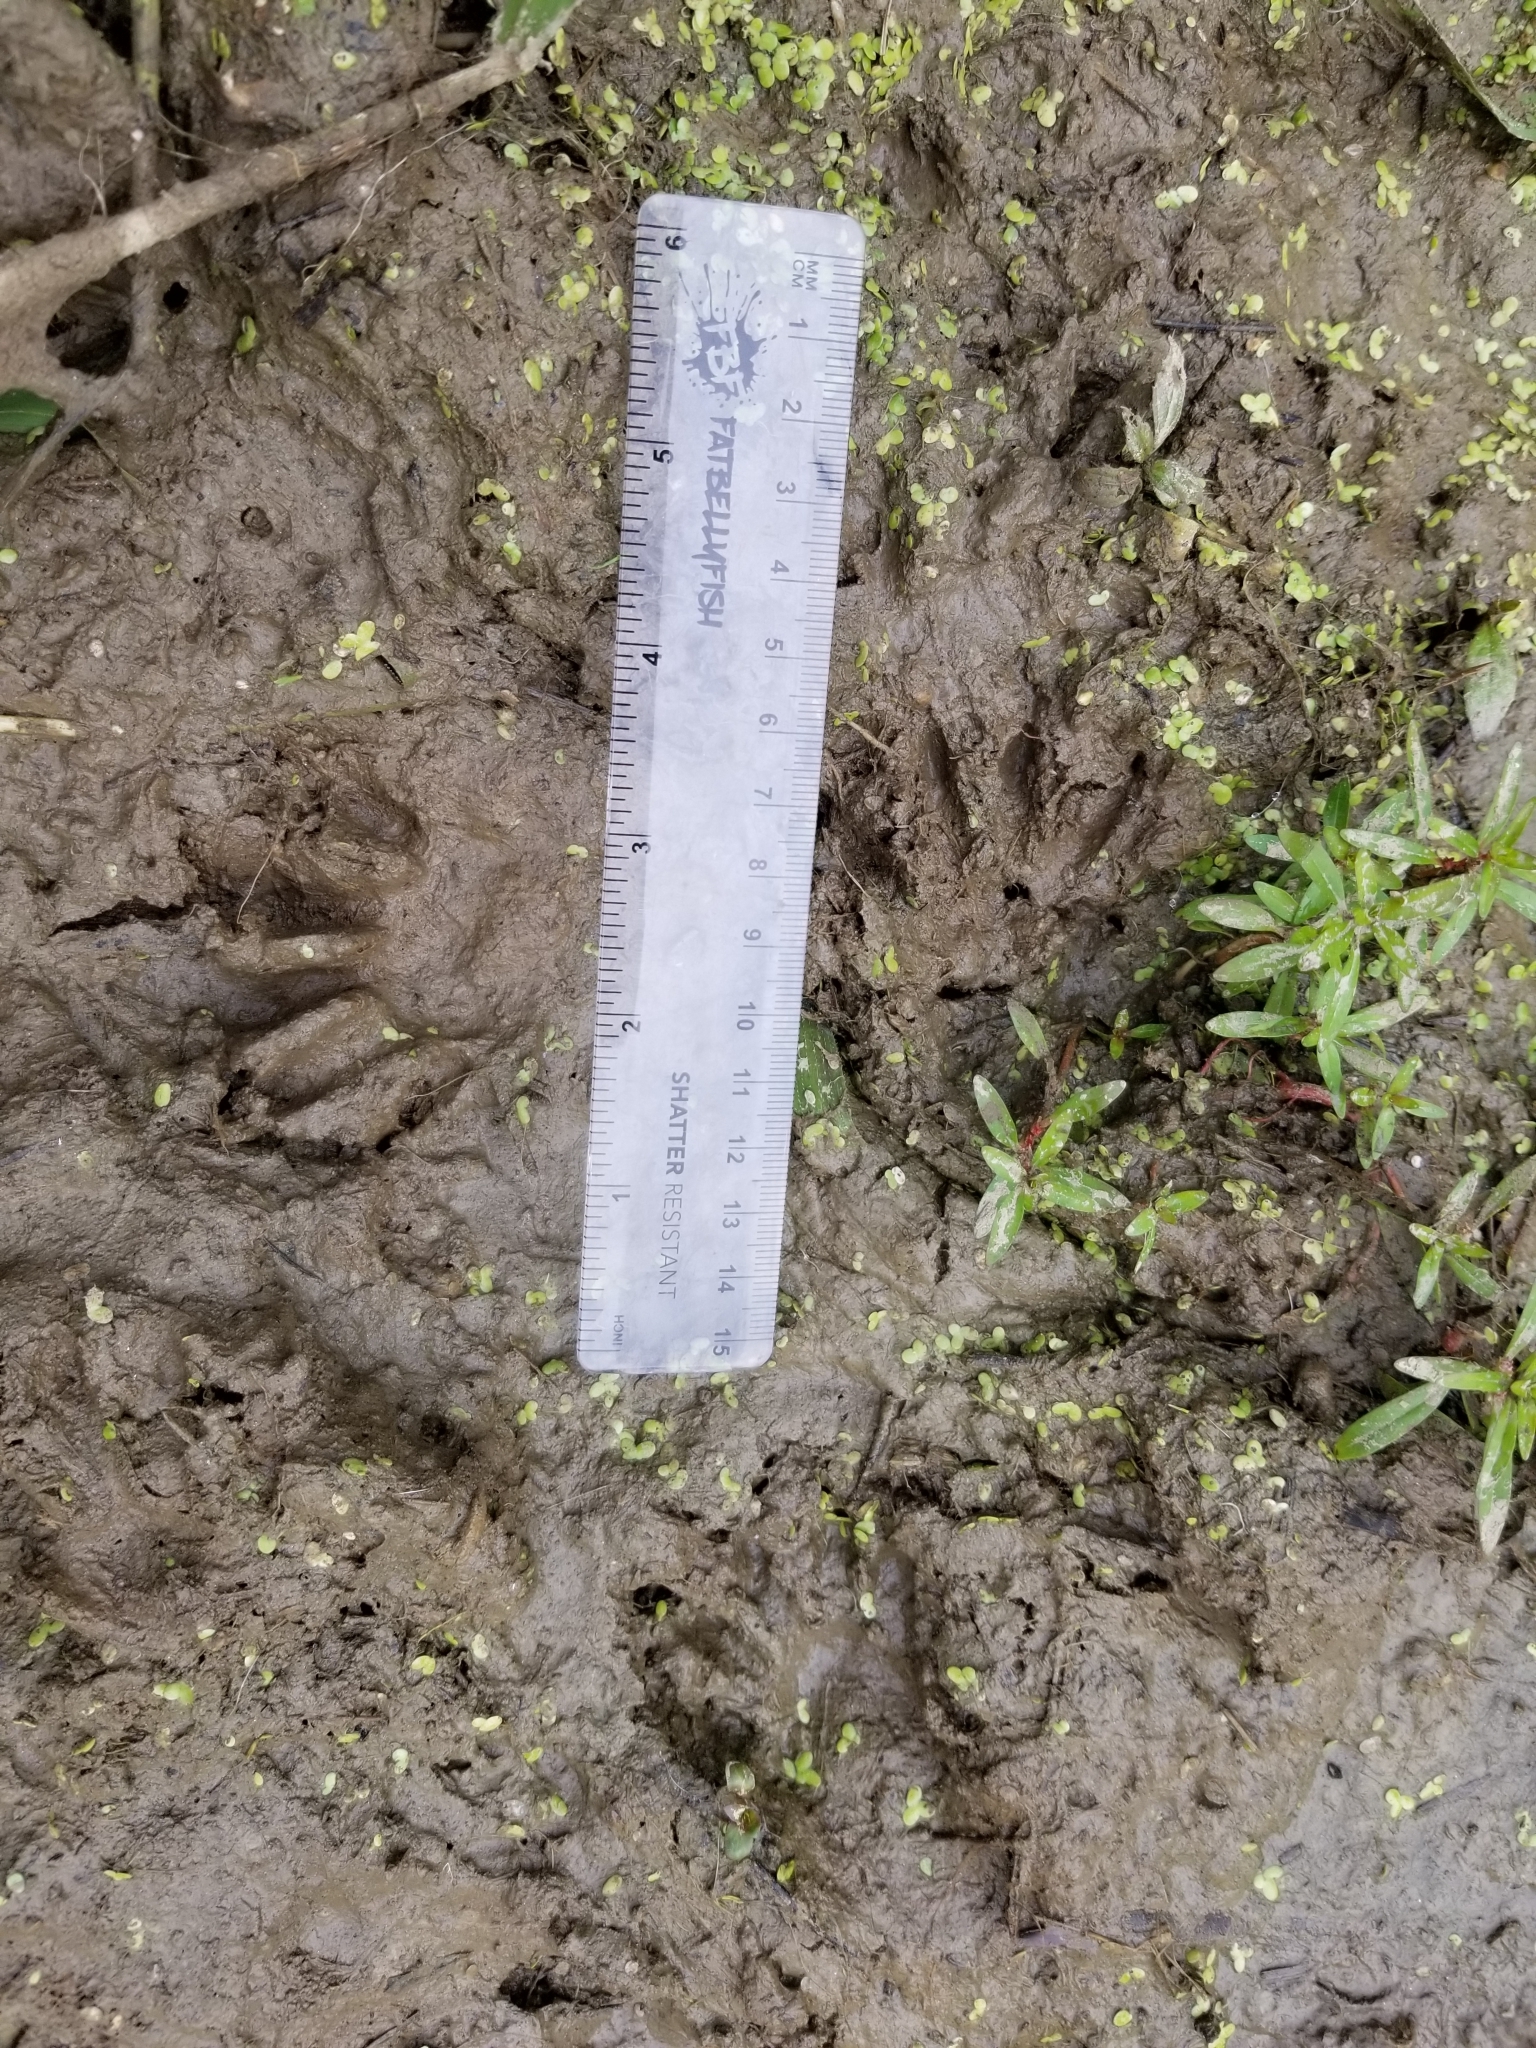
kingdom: Animalia
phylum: Chordata
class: Mammalia
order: Carnivora
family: Procyonidae
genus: Procyon
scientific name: Procyon lotor
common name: Raccoon
